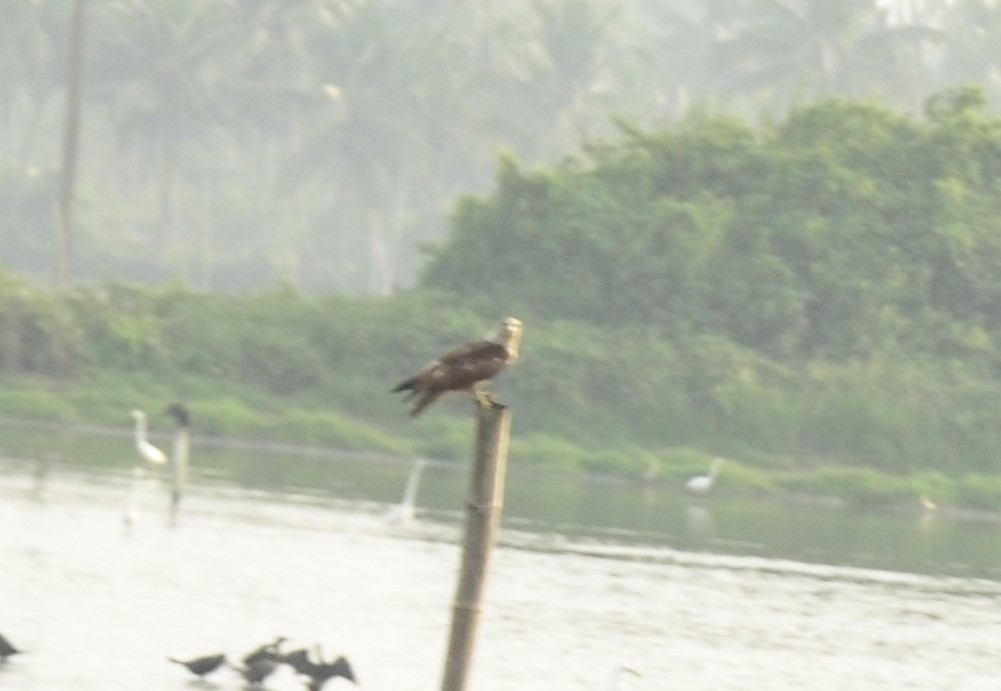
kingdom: Animalia
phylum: Chordata
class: Aves
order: Accipitriformes
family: Accipitridae
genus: Haliastur
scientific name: Haliastur indus
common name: Brahminy kite
